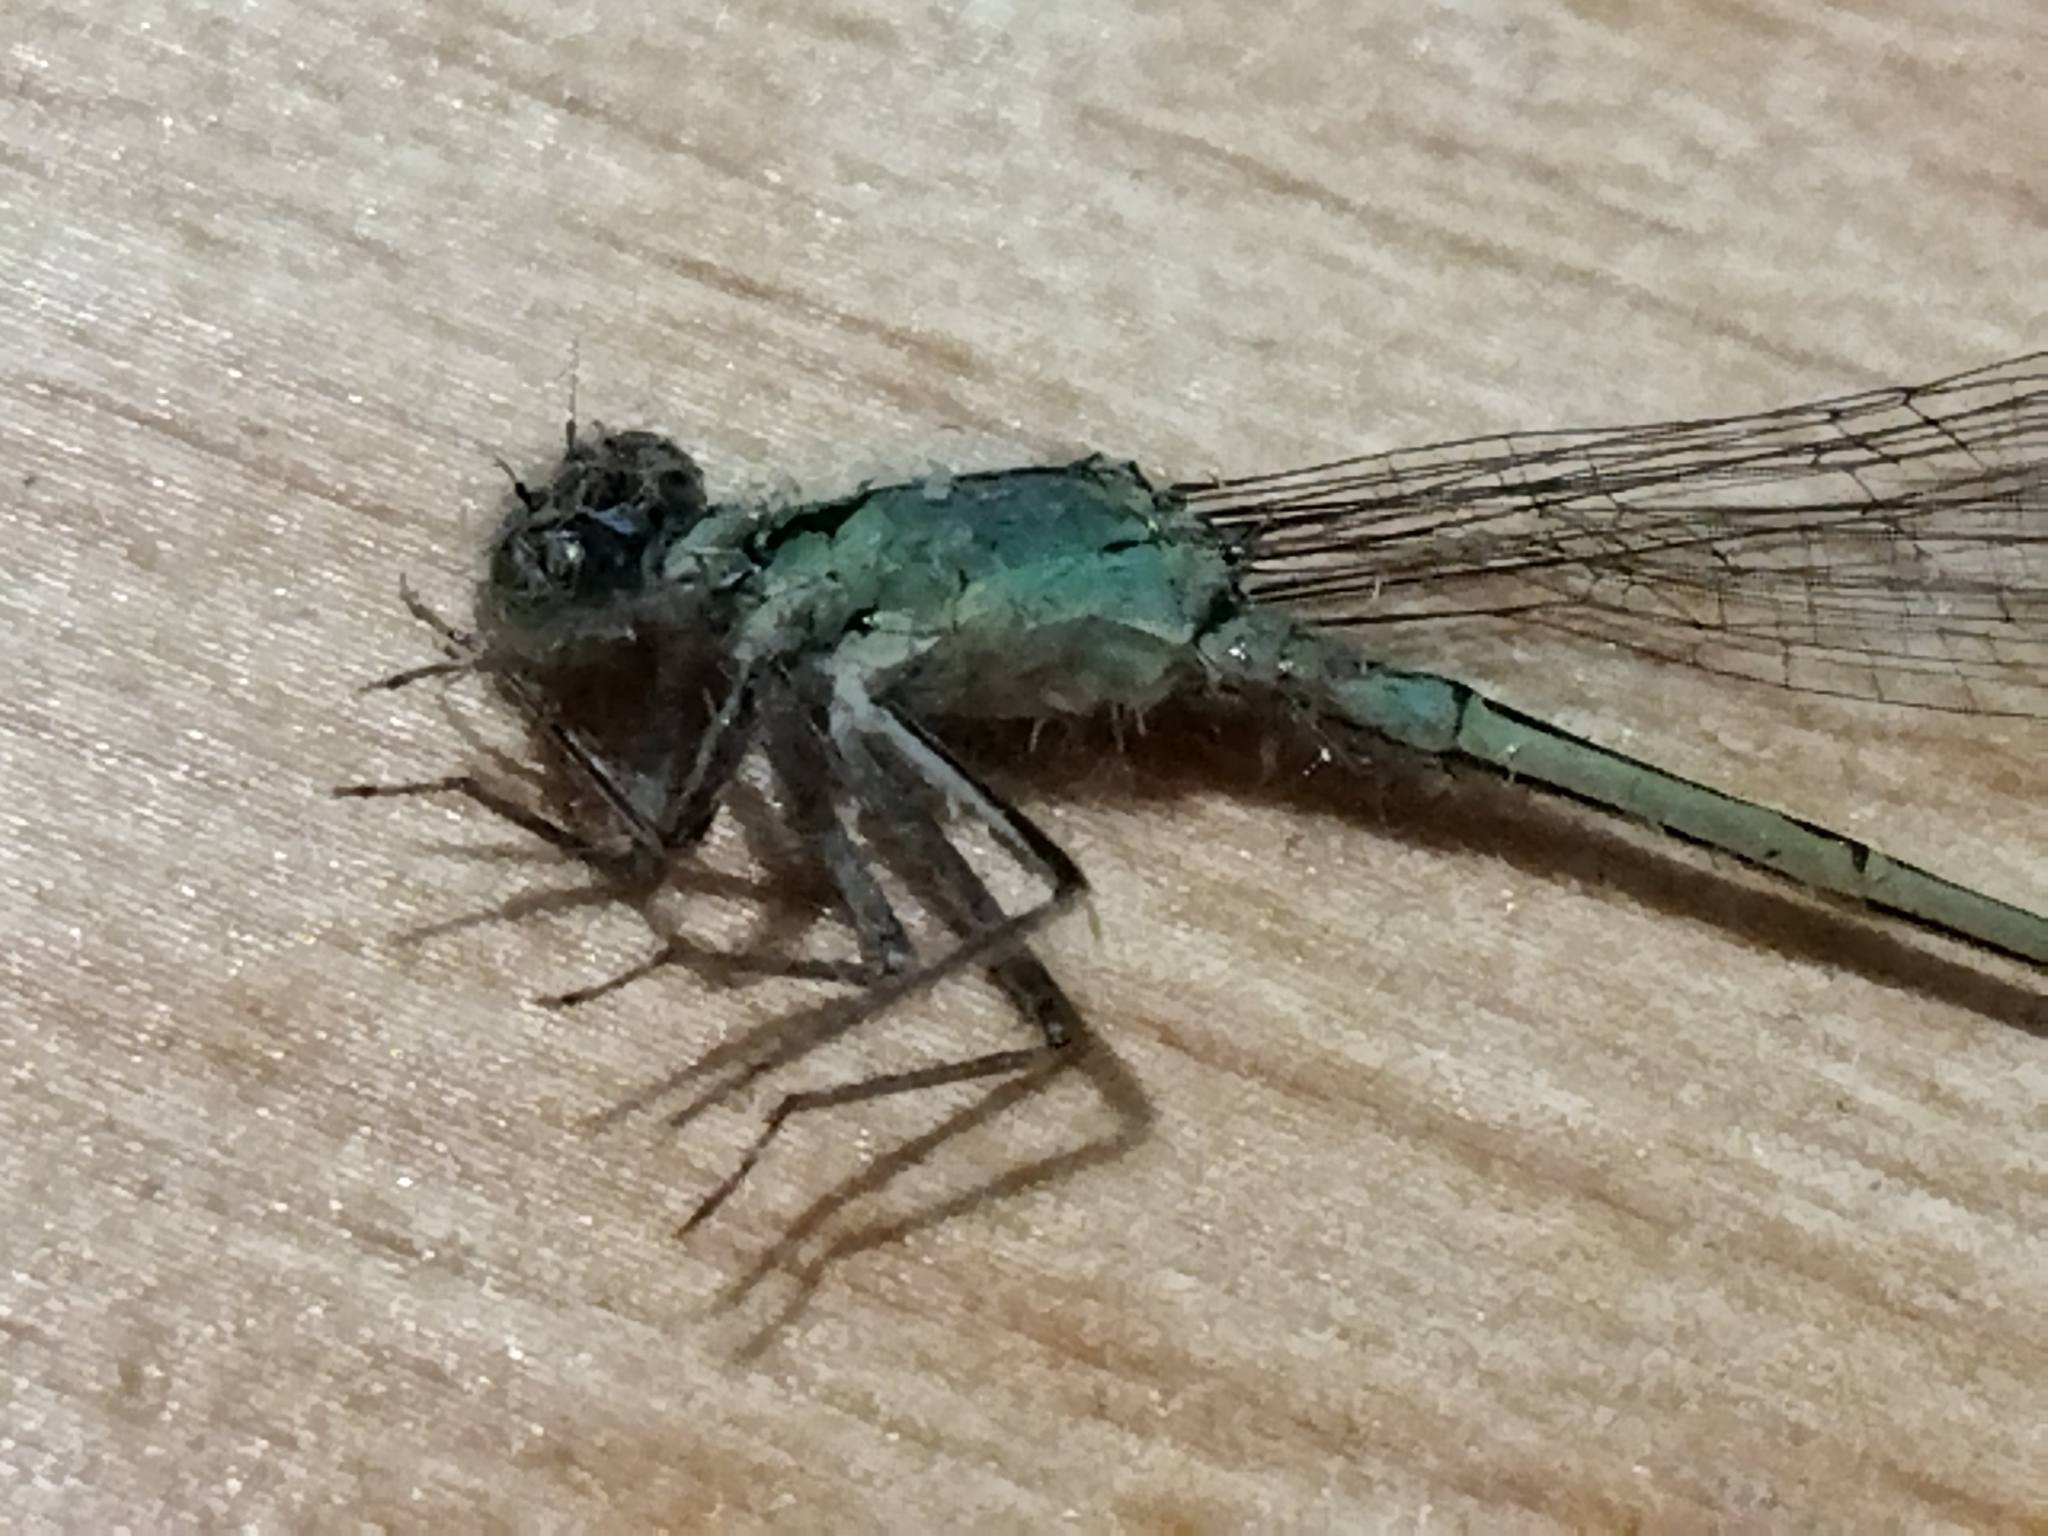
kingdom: Animalia
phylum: Arthropoda
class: Insecta
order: Odonata
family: Coenagrionidae
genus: Ischnura
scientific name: Ischnura elegans
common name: Blue-tailed damselfly
